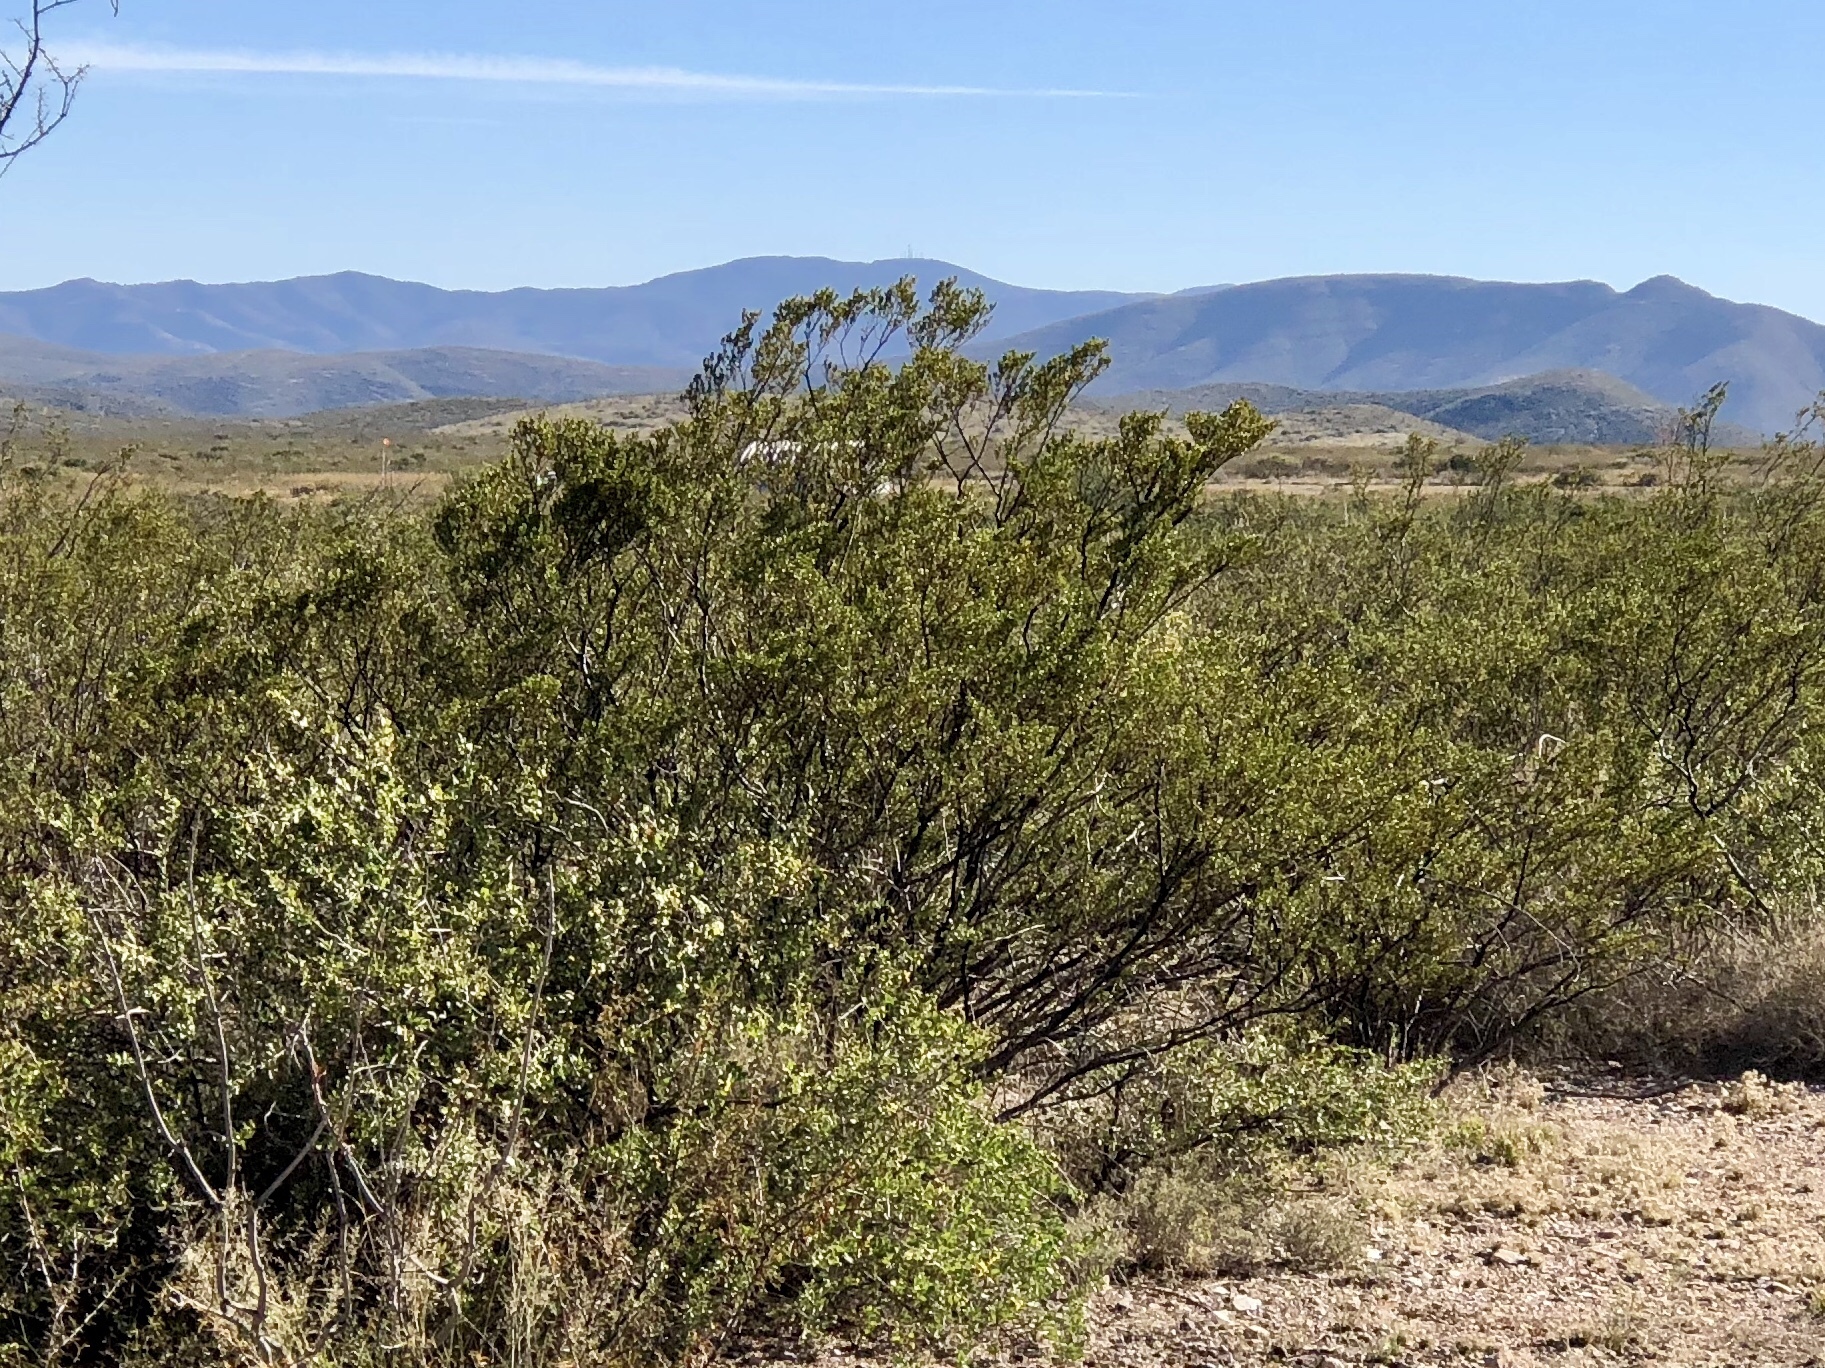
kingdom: Plantae
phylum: Tracheophyta
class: Magnoliopsida
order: Zygophyllales
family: Zygophyllaceae
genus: Larrea
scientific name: Larrea tridentata
